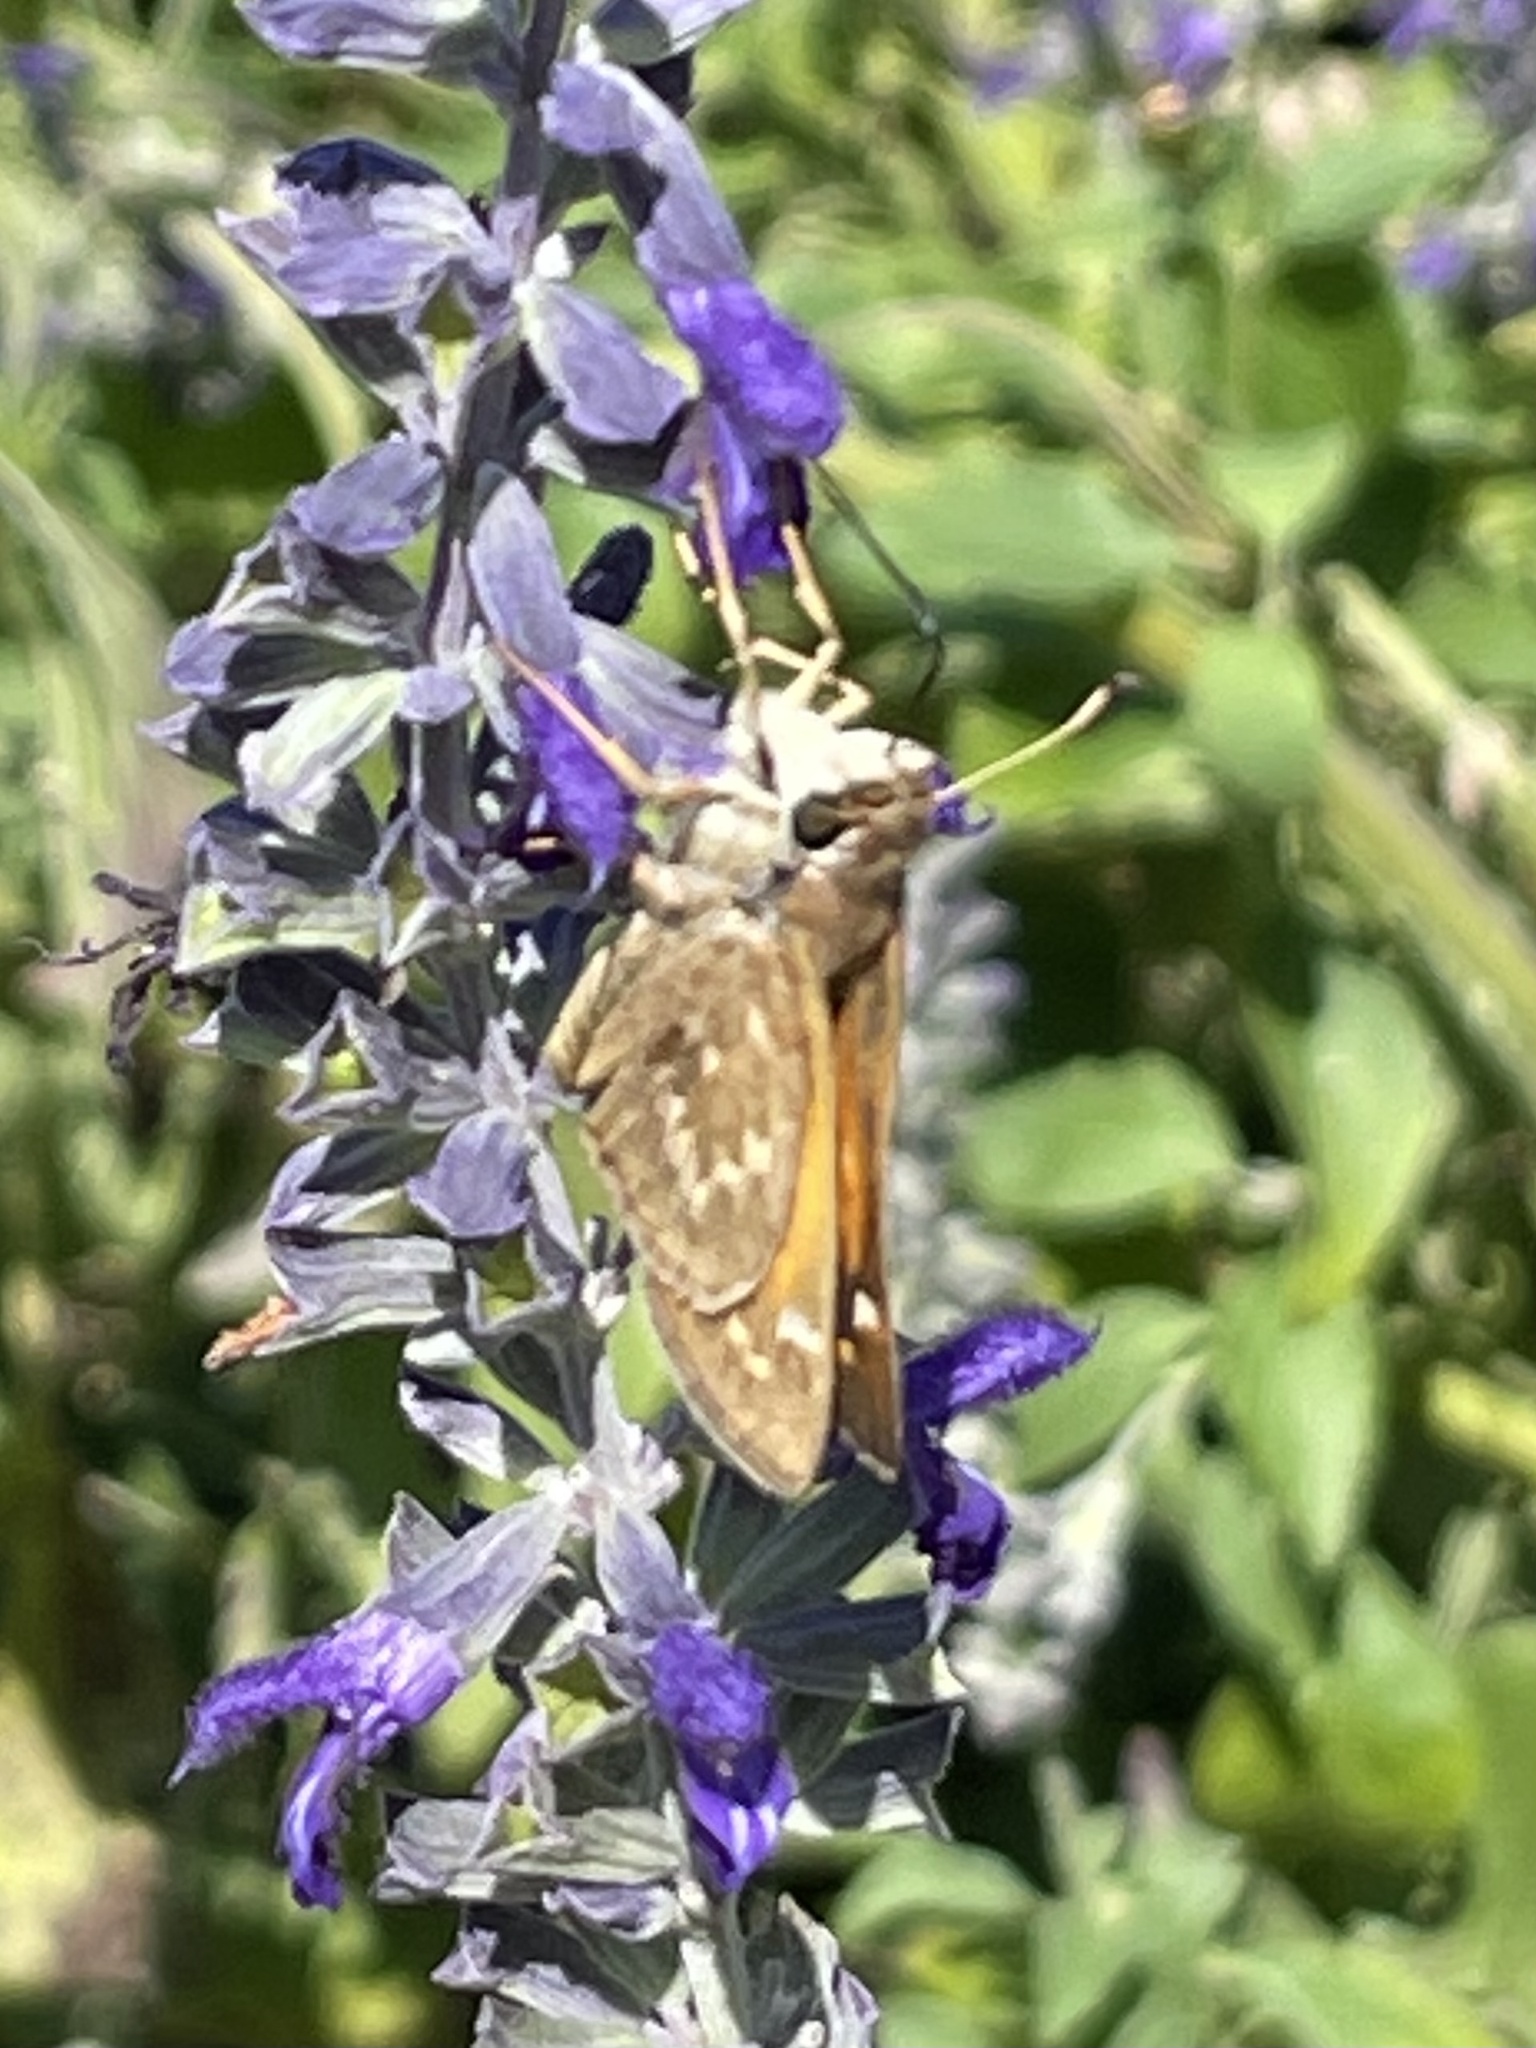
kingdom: Animalia
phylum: Arthropoda
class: Insecta
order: Lepidoptera
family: Hesperiidae
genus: Atalopedes
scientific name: Atalopedes
